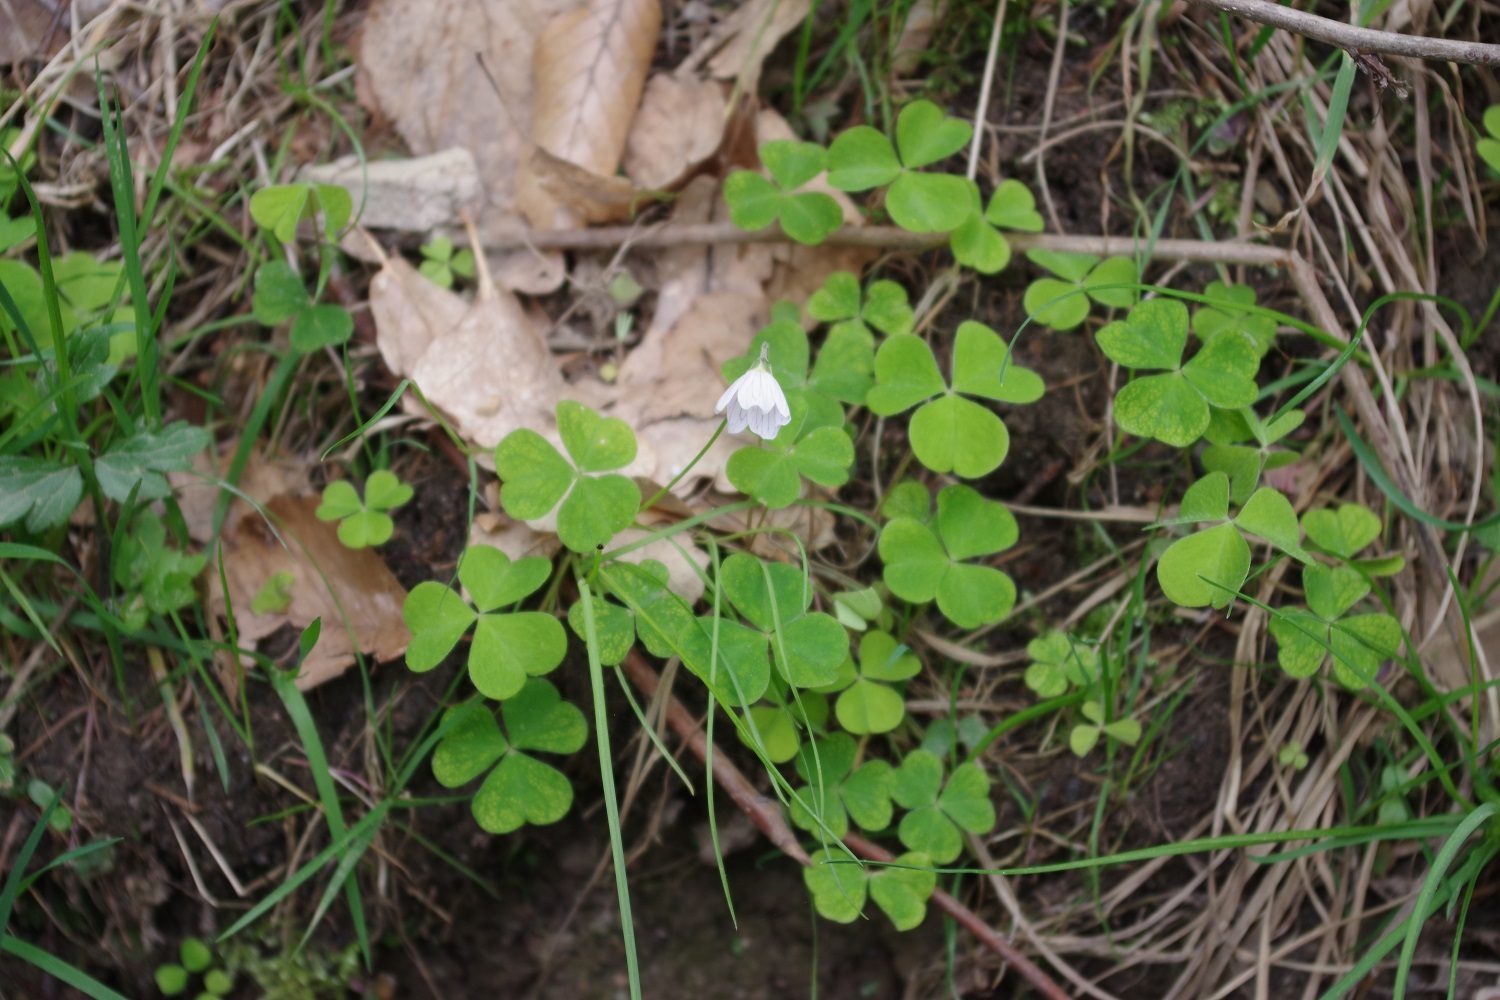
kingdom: Plantae
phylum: Tracheophyta
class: Magnoliopsida
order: Oxalidales
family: Oxalidaceae
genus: Oxalis
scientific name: Oxalis acetosella
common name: Wood-sorrel
